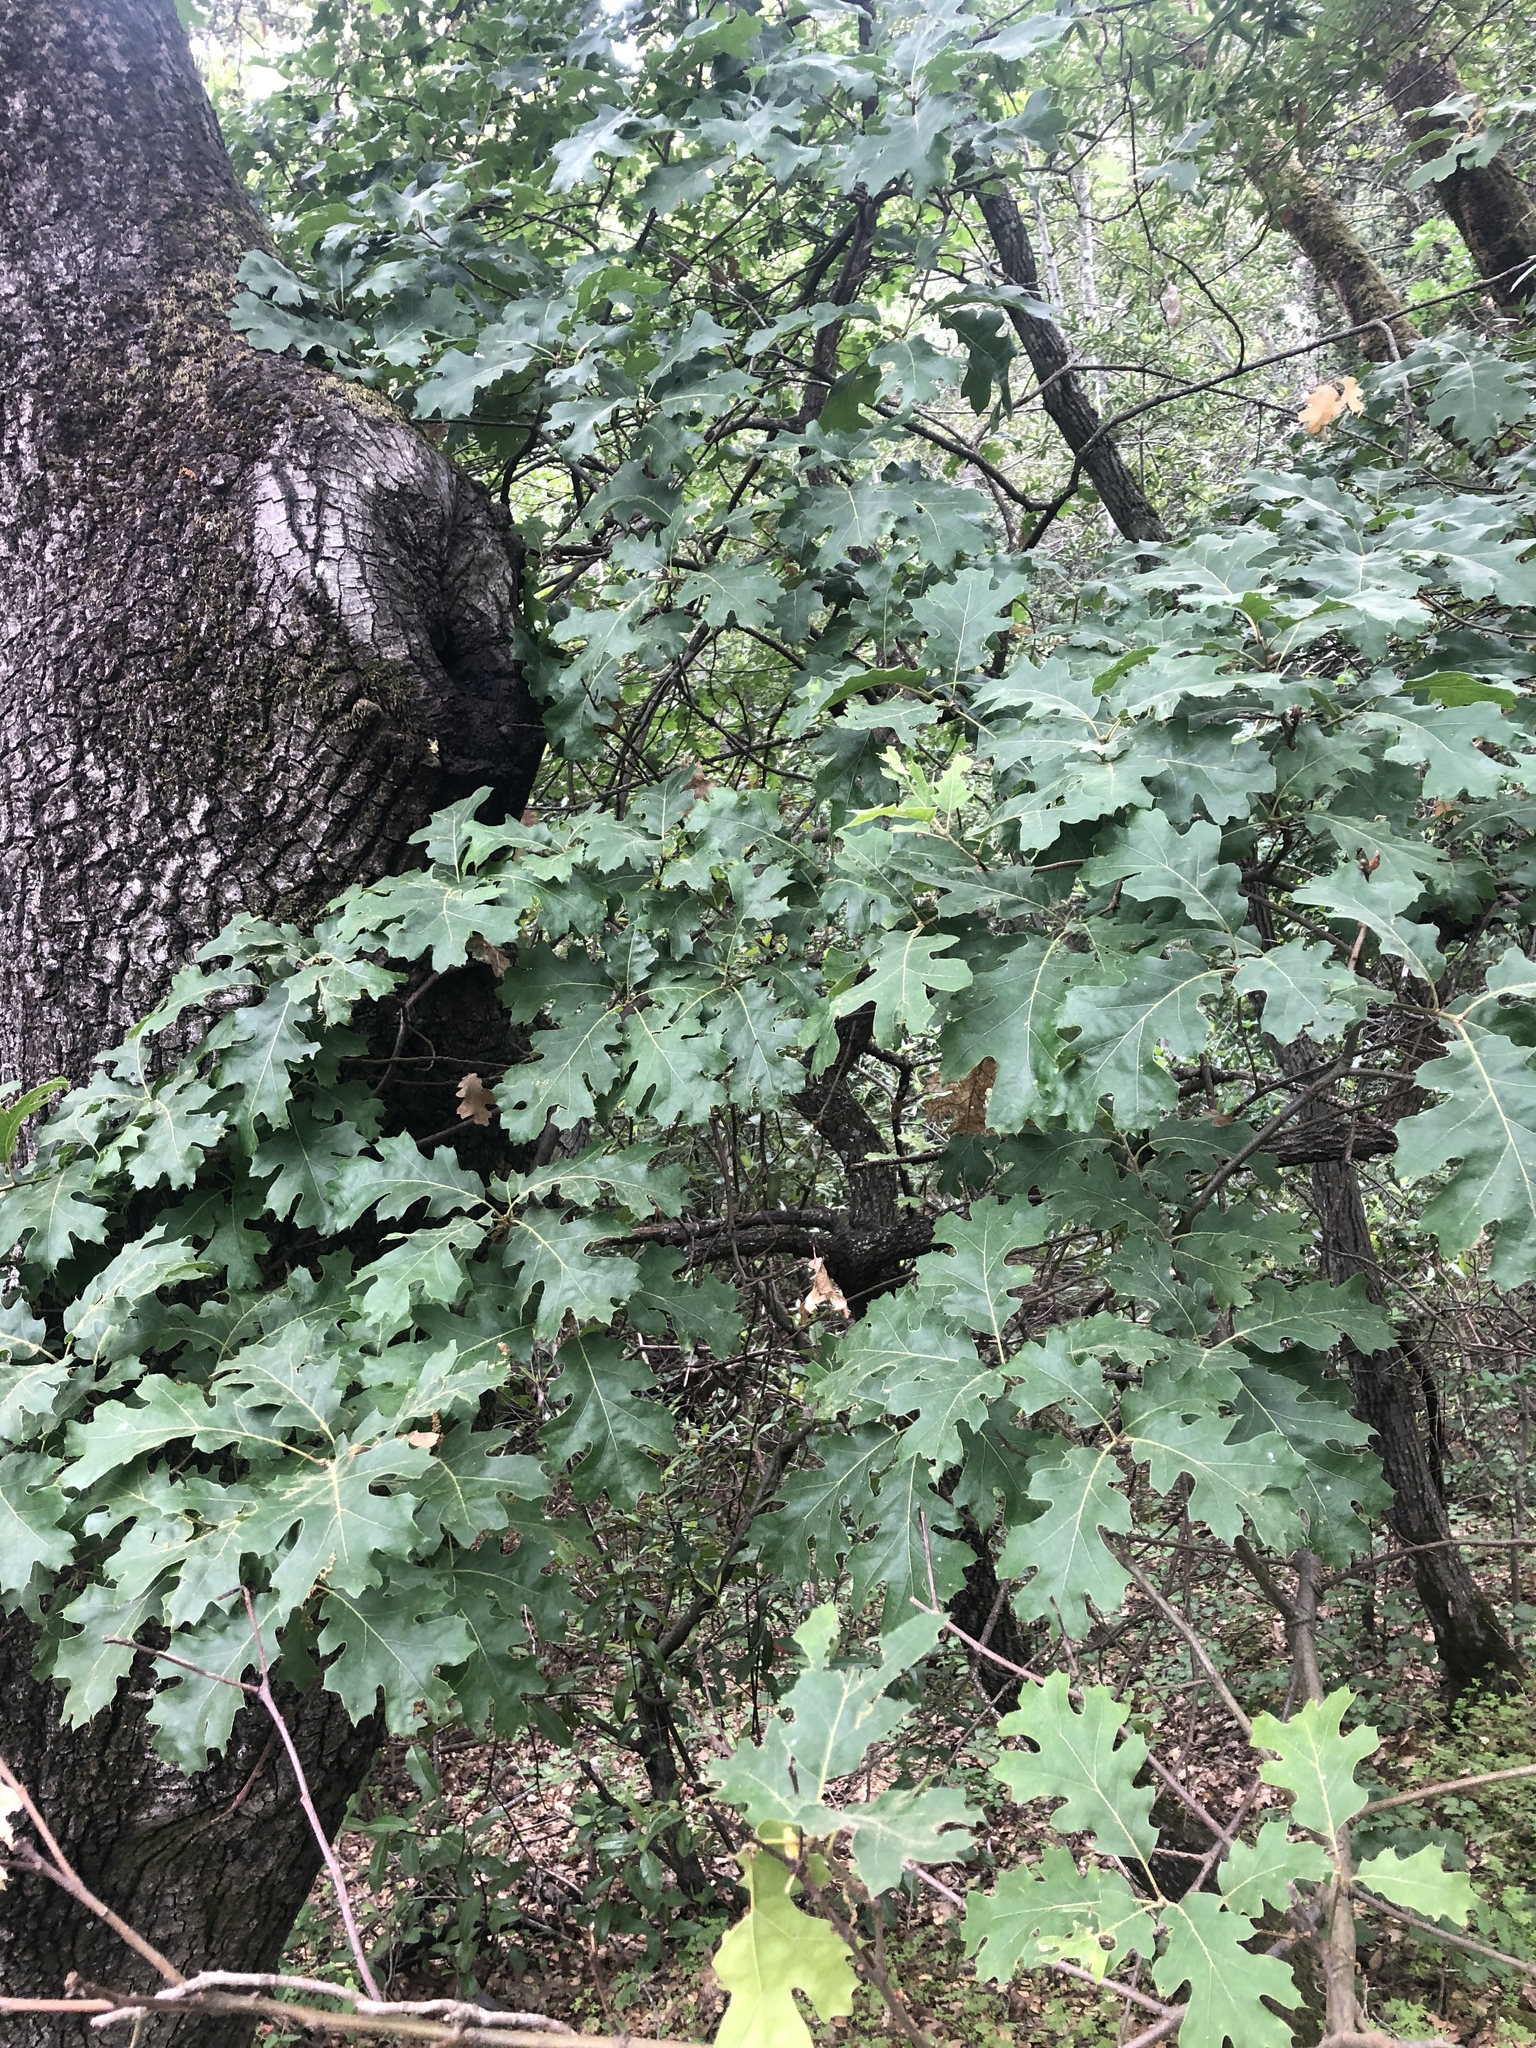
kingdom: Plantae
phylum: Tracheophyta
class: Magnoliopsida
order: Fagales
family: Fagaceae
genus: Quercus
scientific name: Quercus kelloggii
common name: California black oak
